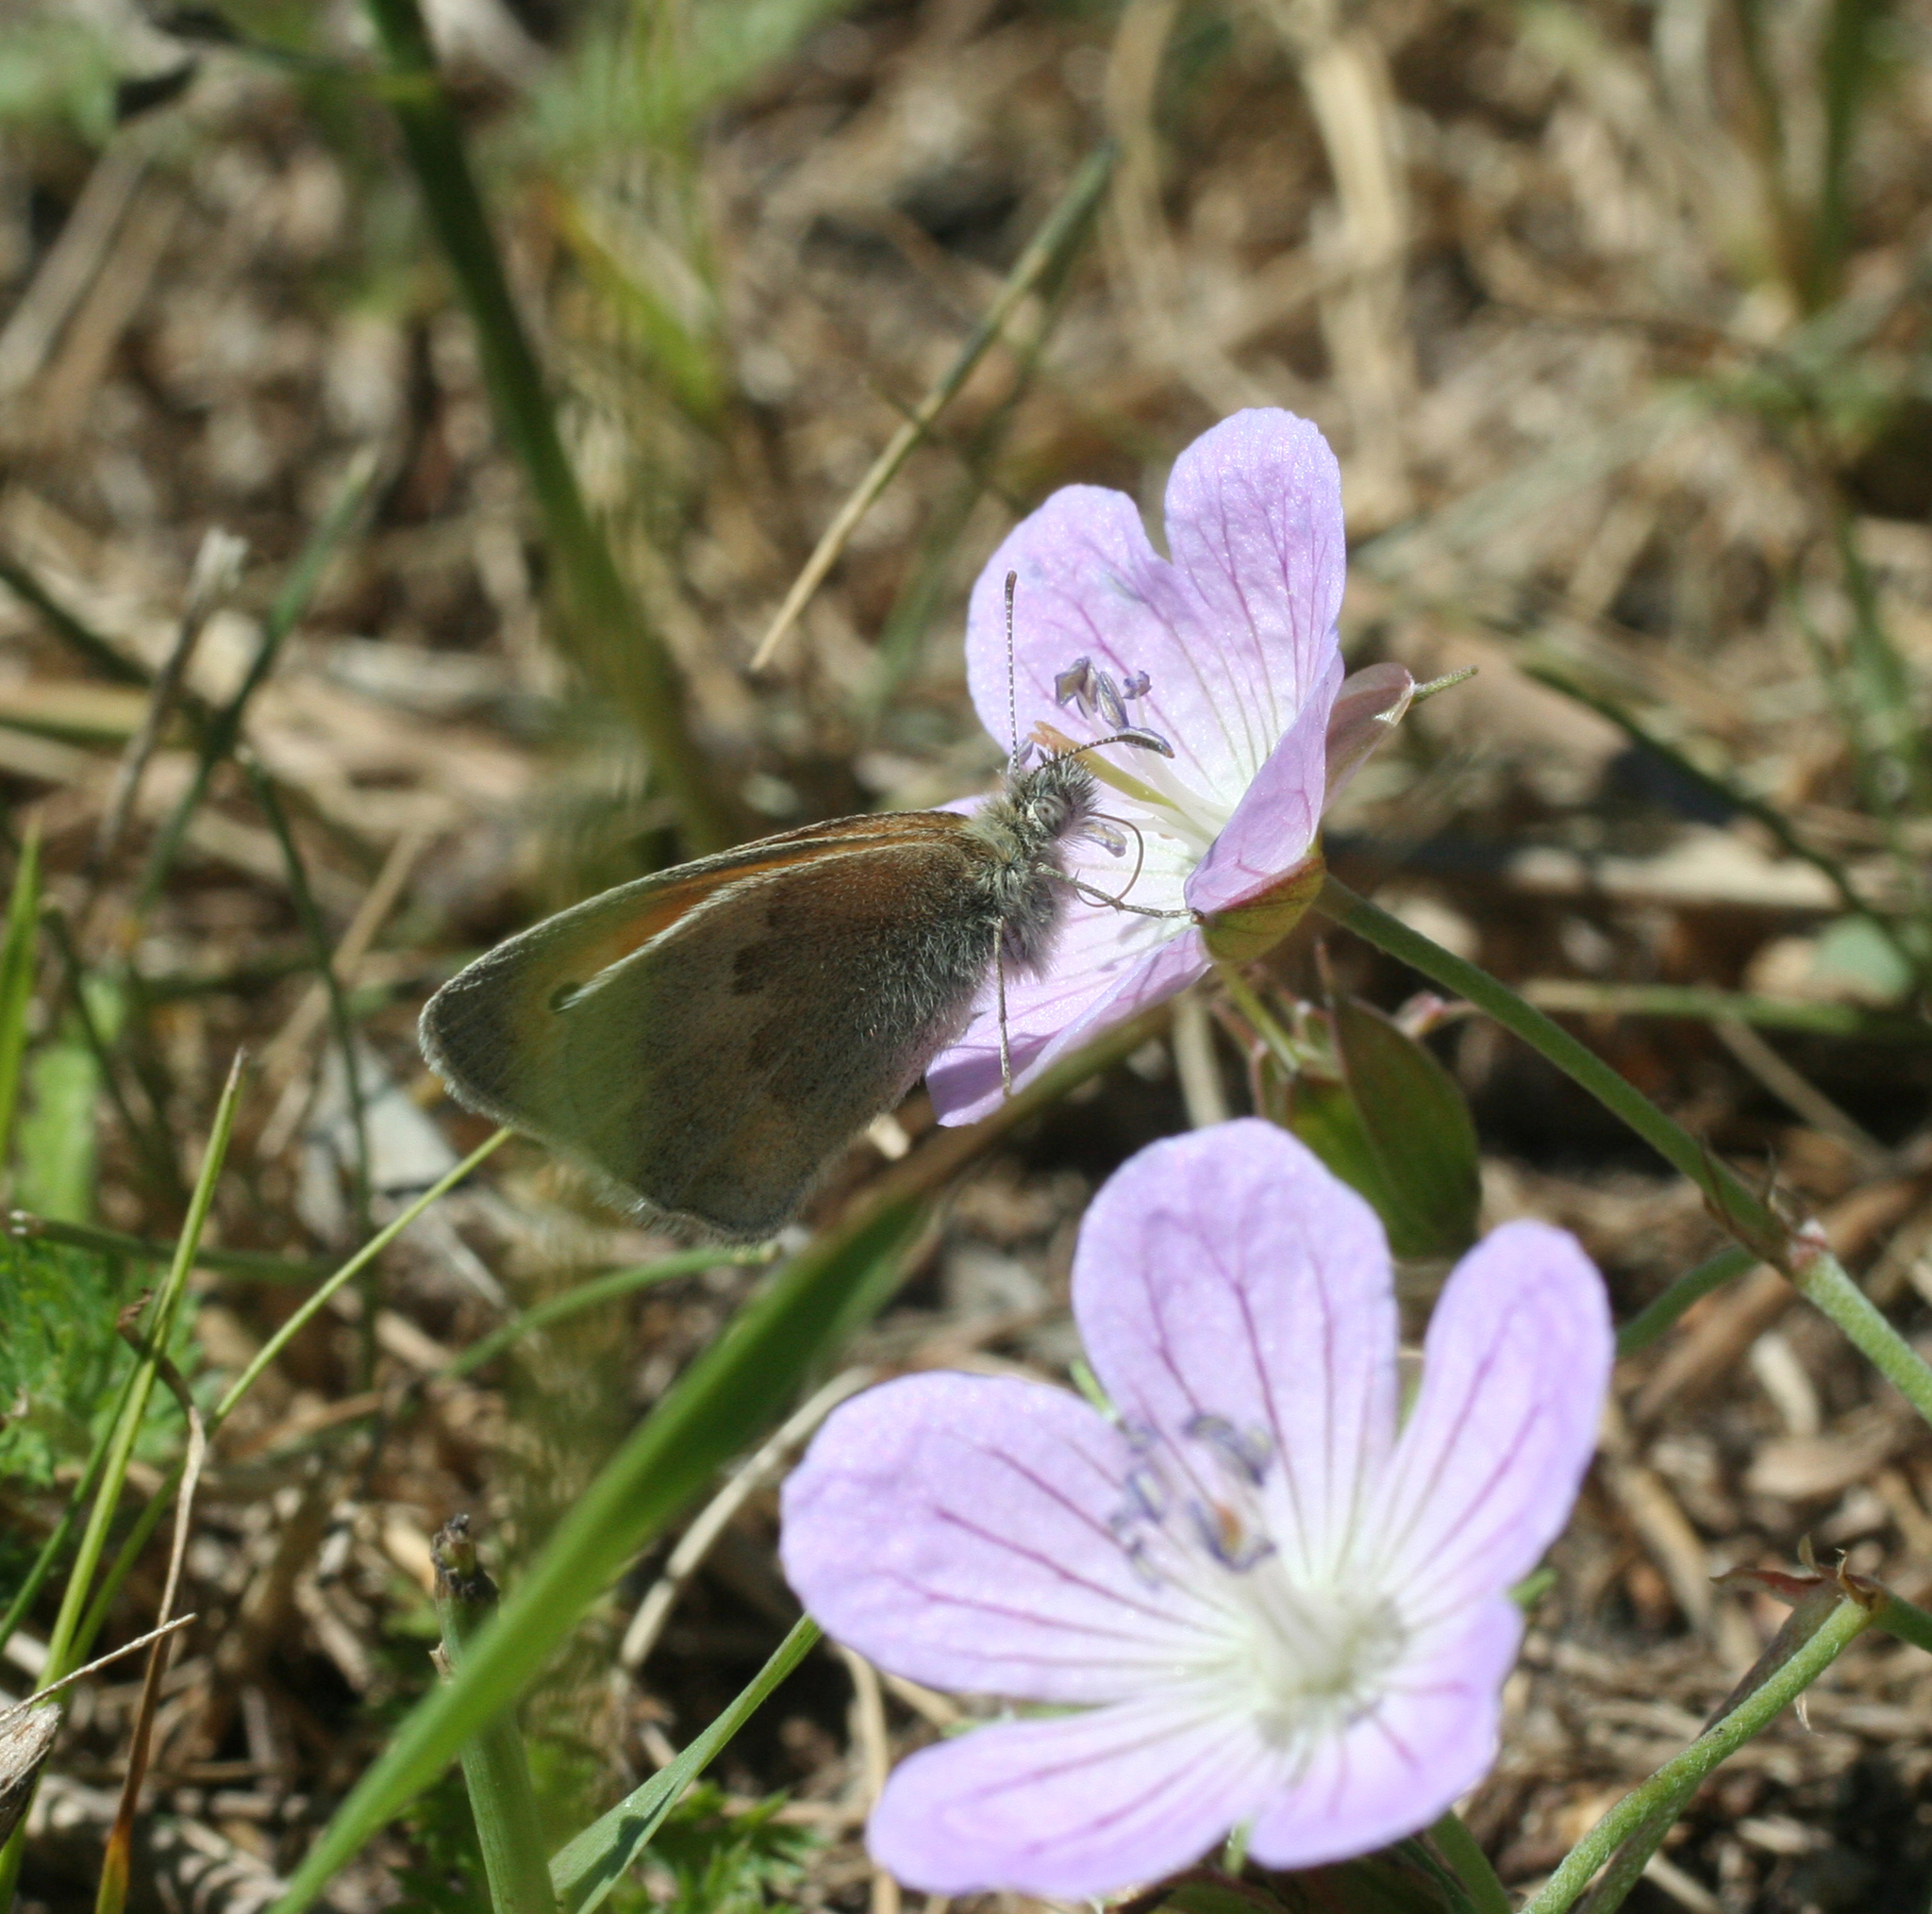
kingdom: Plantae
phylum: Tracheophyta
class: Magnoliopsida
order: Geraniales
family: Geraniaceae
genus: Geranium
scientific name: Geranium collinum
